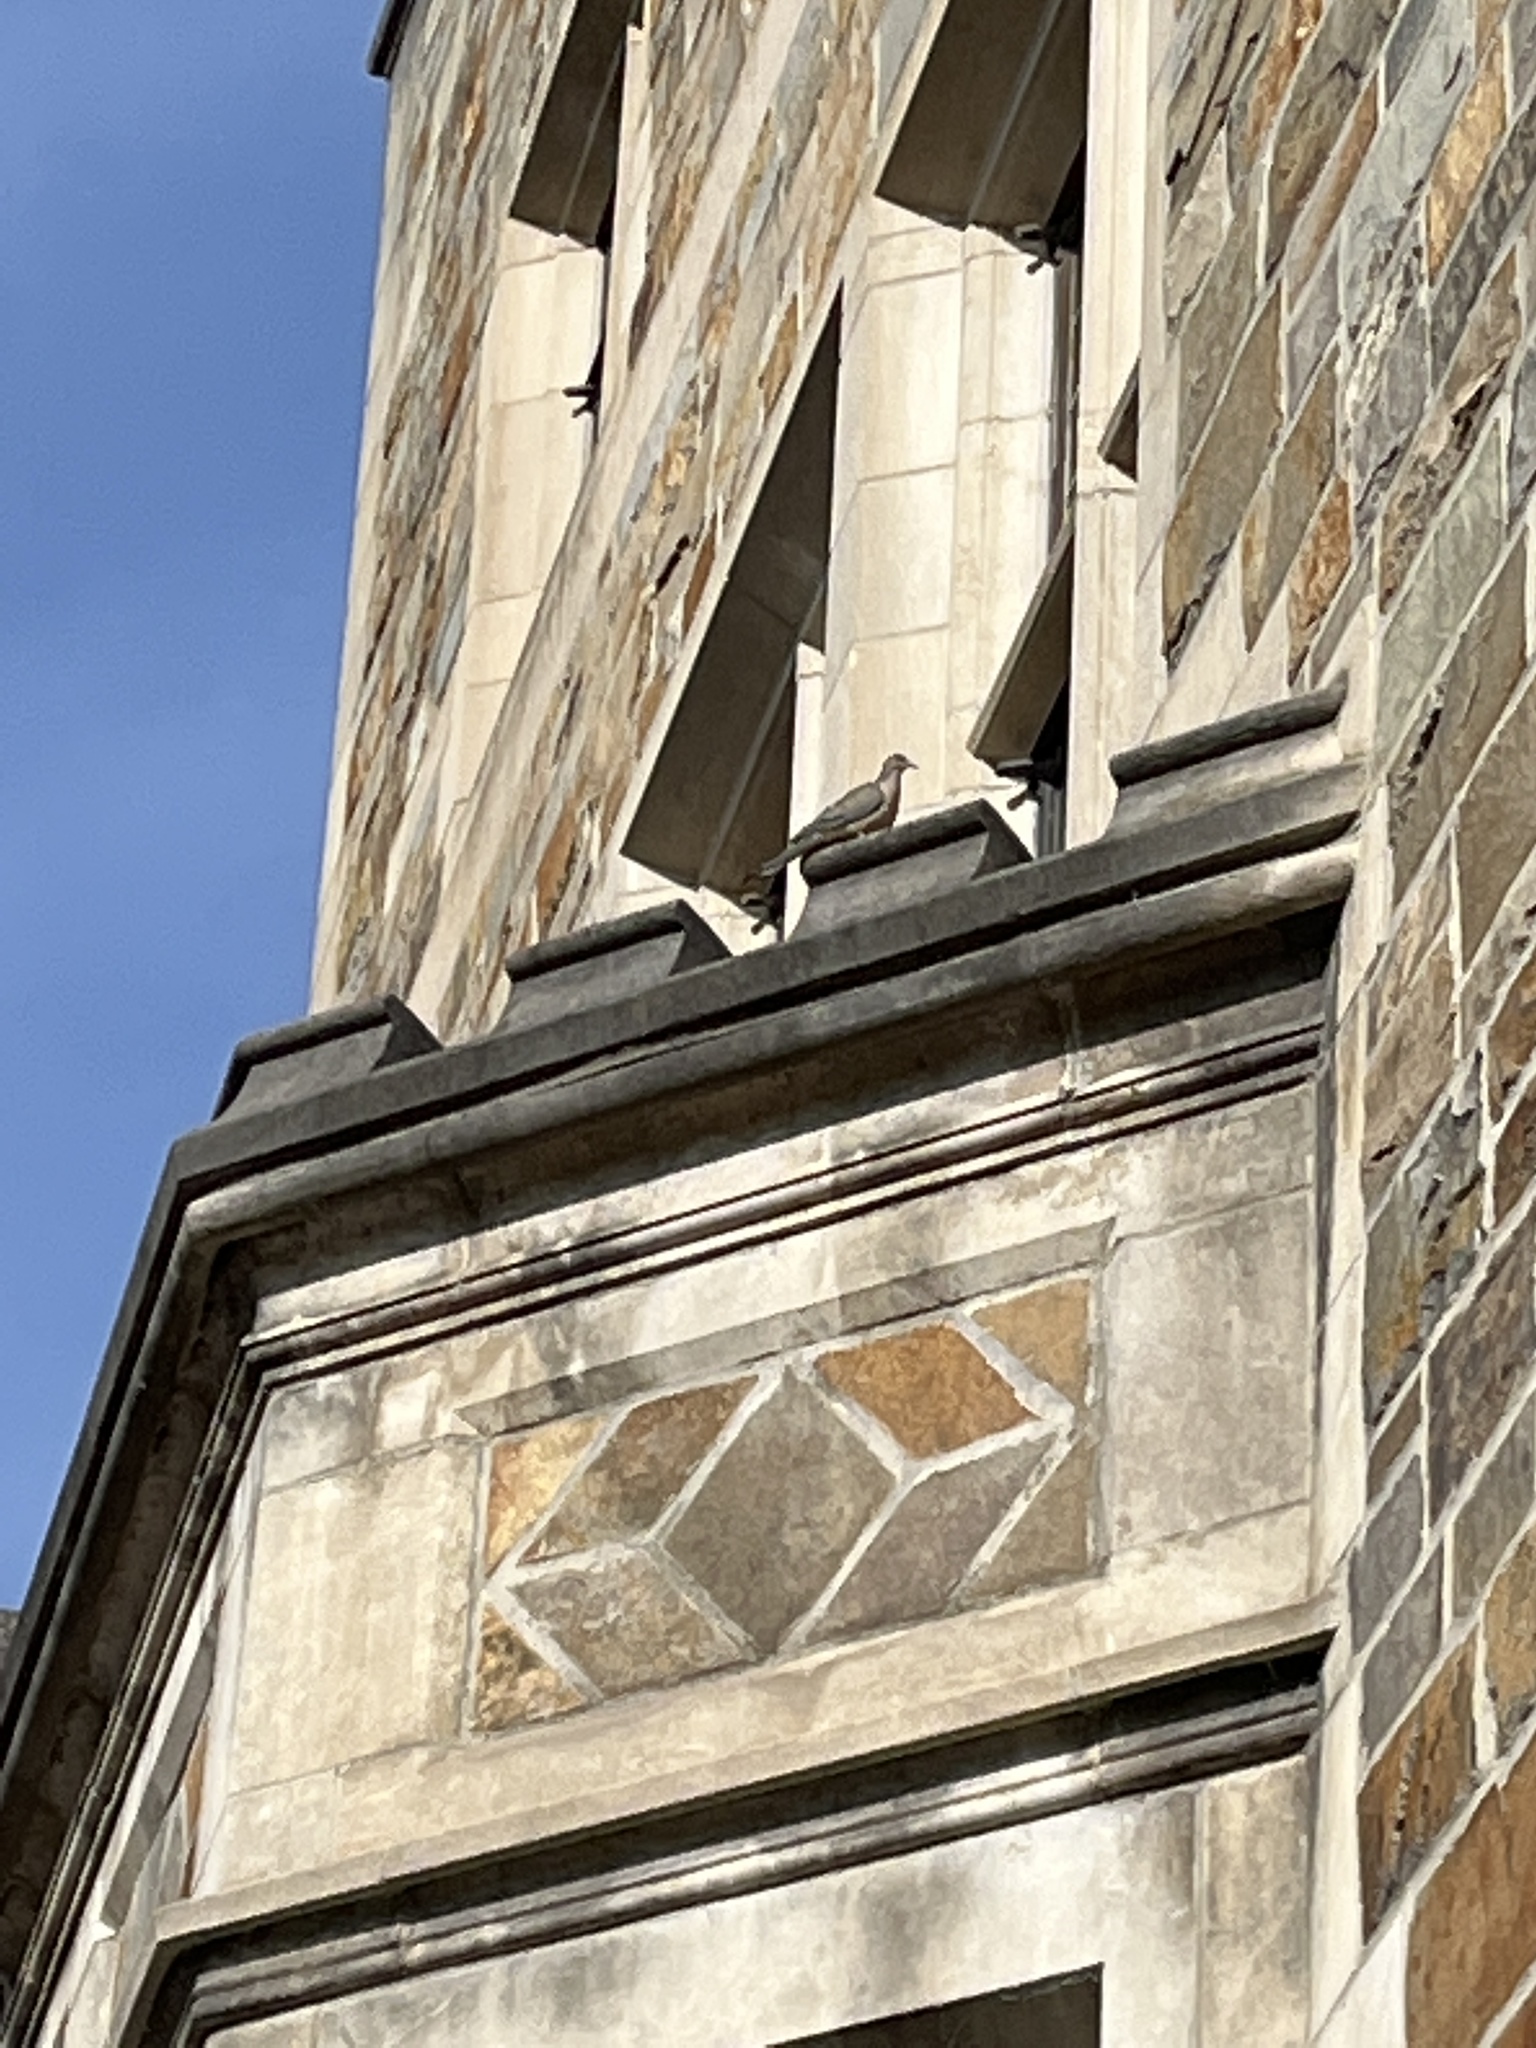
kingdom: Animalia
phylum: Chordata
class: Aves
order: Columbiformes
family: Columbidae
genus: Zenaida
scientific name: Zenaida macroura
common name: Mourning dove
